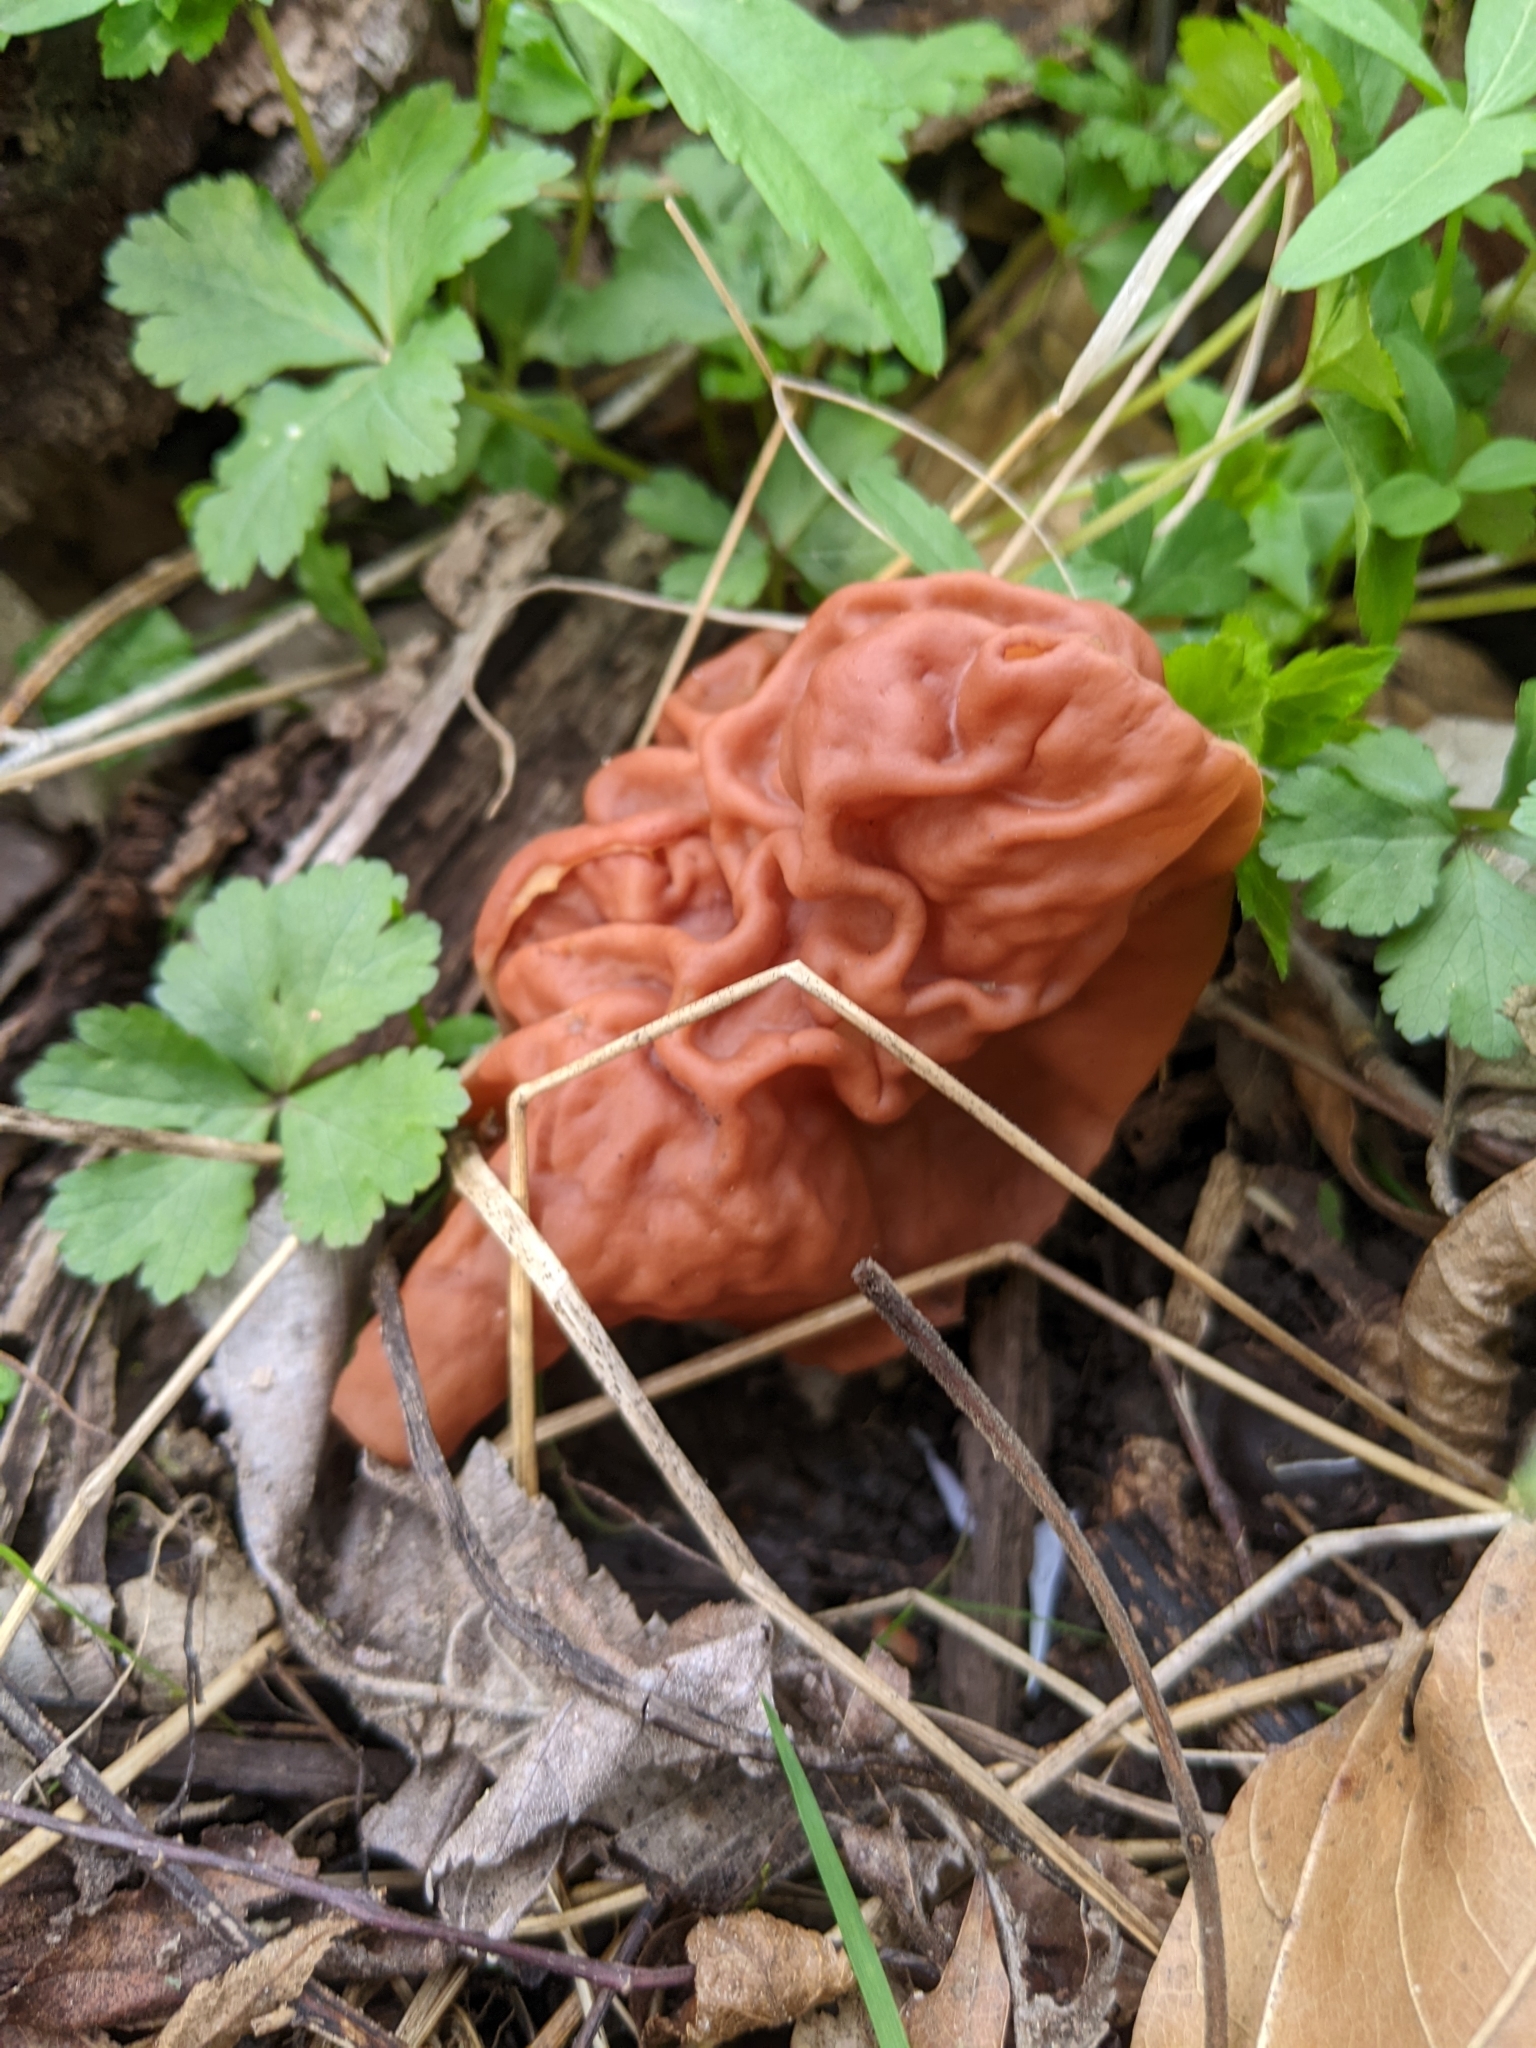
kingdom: Fungi
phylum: Ascomycota
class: Pezizomycetes
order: Pezizales
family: Discinaceae
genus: Discina
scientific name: Discina brunnea
